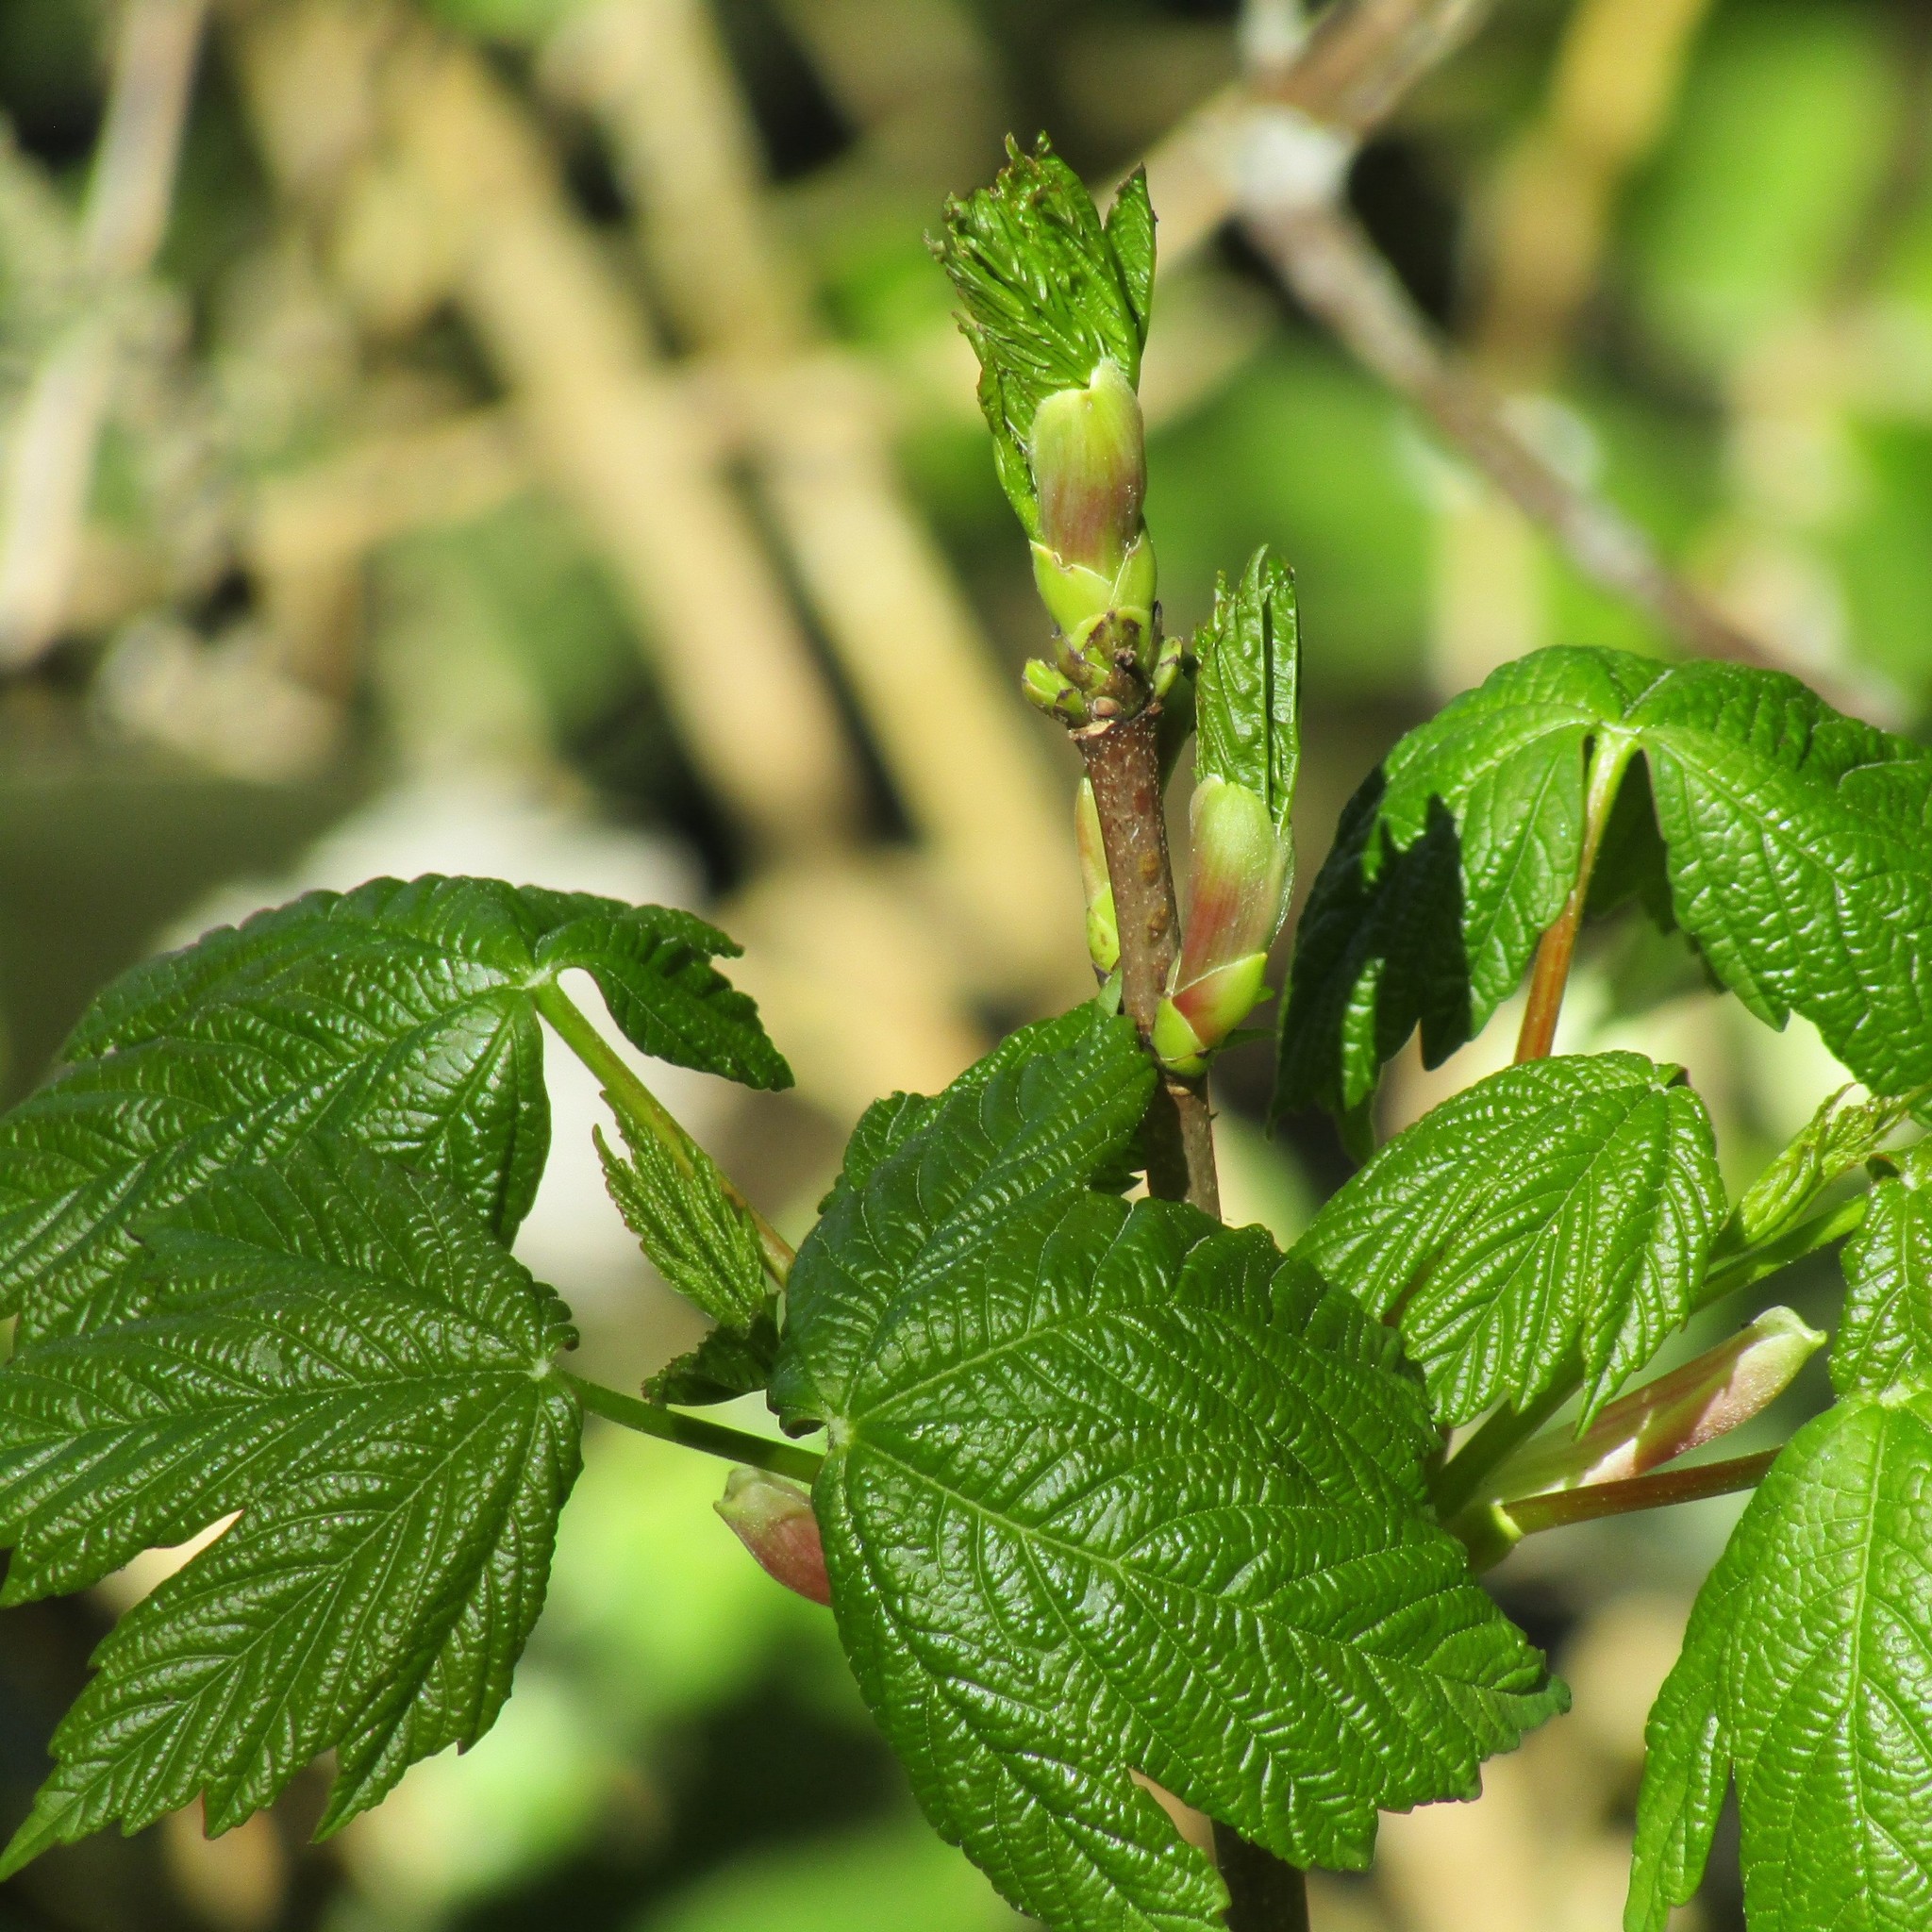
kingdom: Plantae
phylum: Tracheophyta
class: Magnoliopsida
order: Sapindales
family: Sapindaceae
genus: Acer
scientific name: Acer pseudoplatanus
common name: Sycamore
